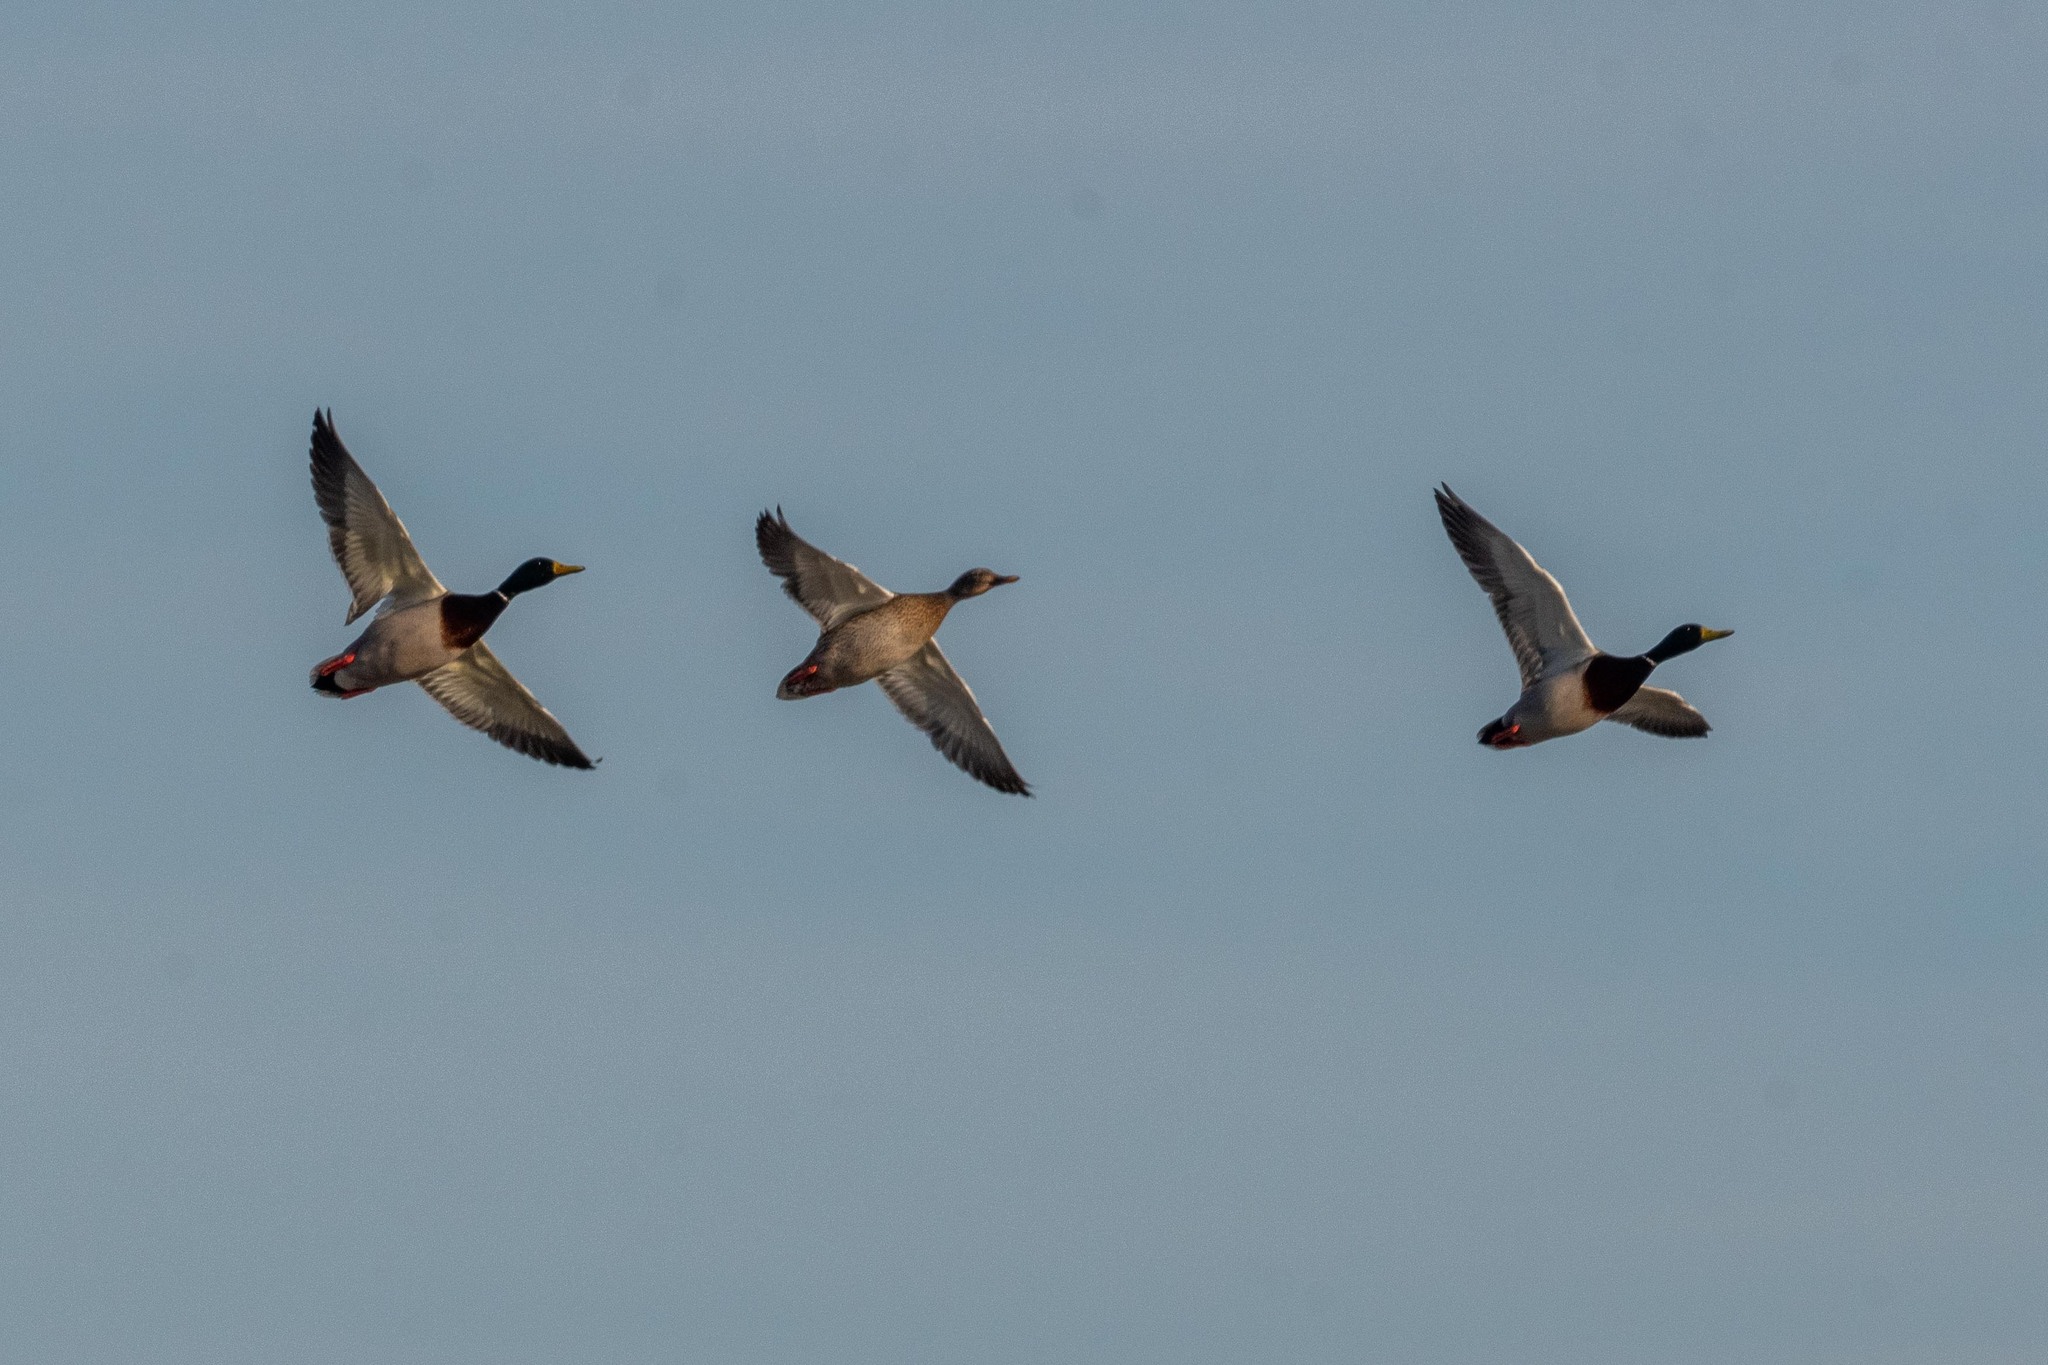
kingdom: Animalia
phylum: Chordata
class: Aves
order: Anseriformes
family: Anatidae
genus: Anas
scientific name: Anas platyrhynchos
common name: Mallard
